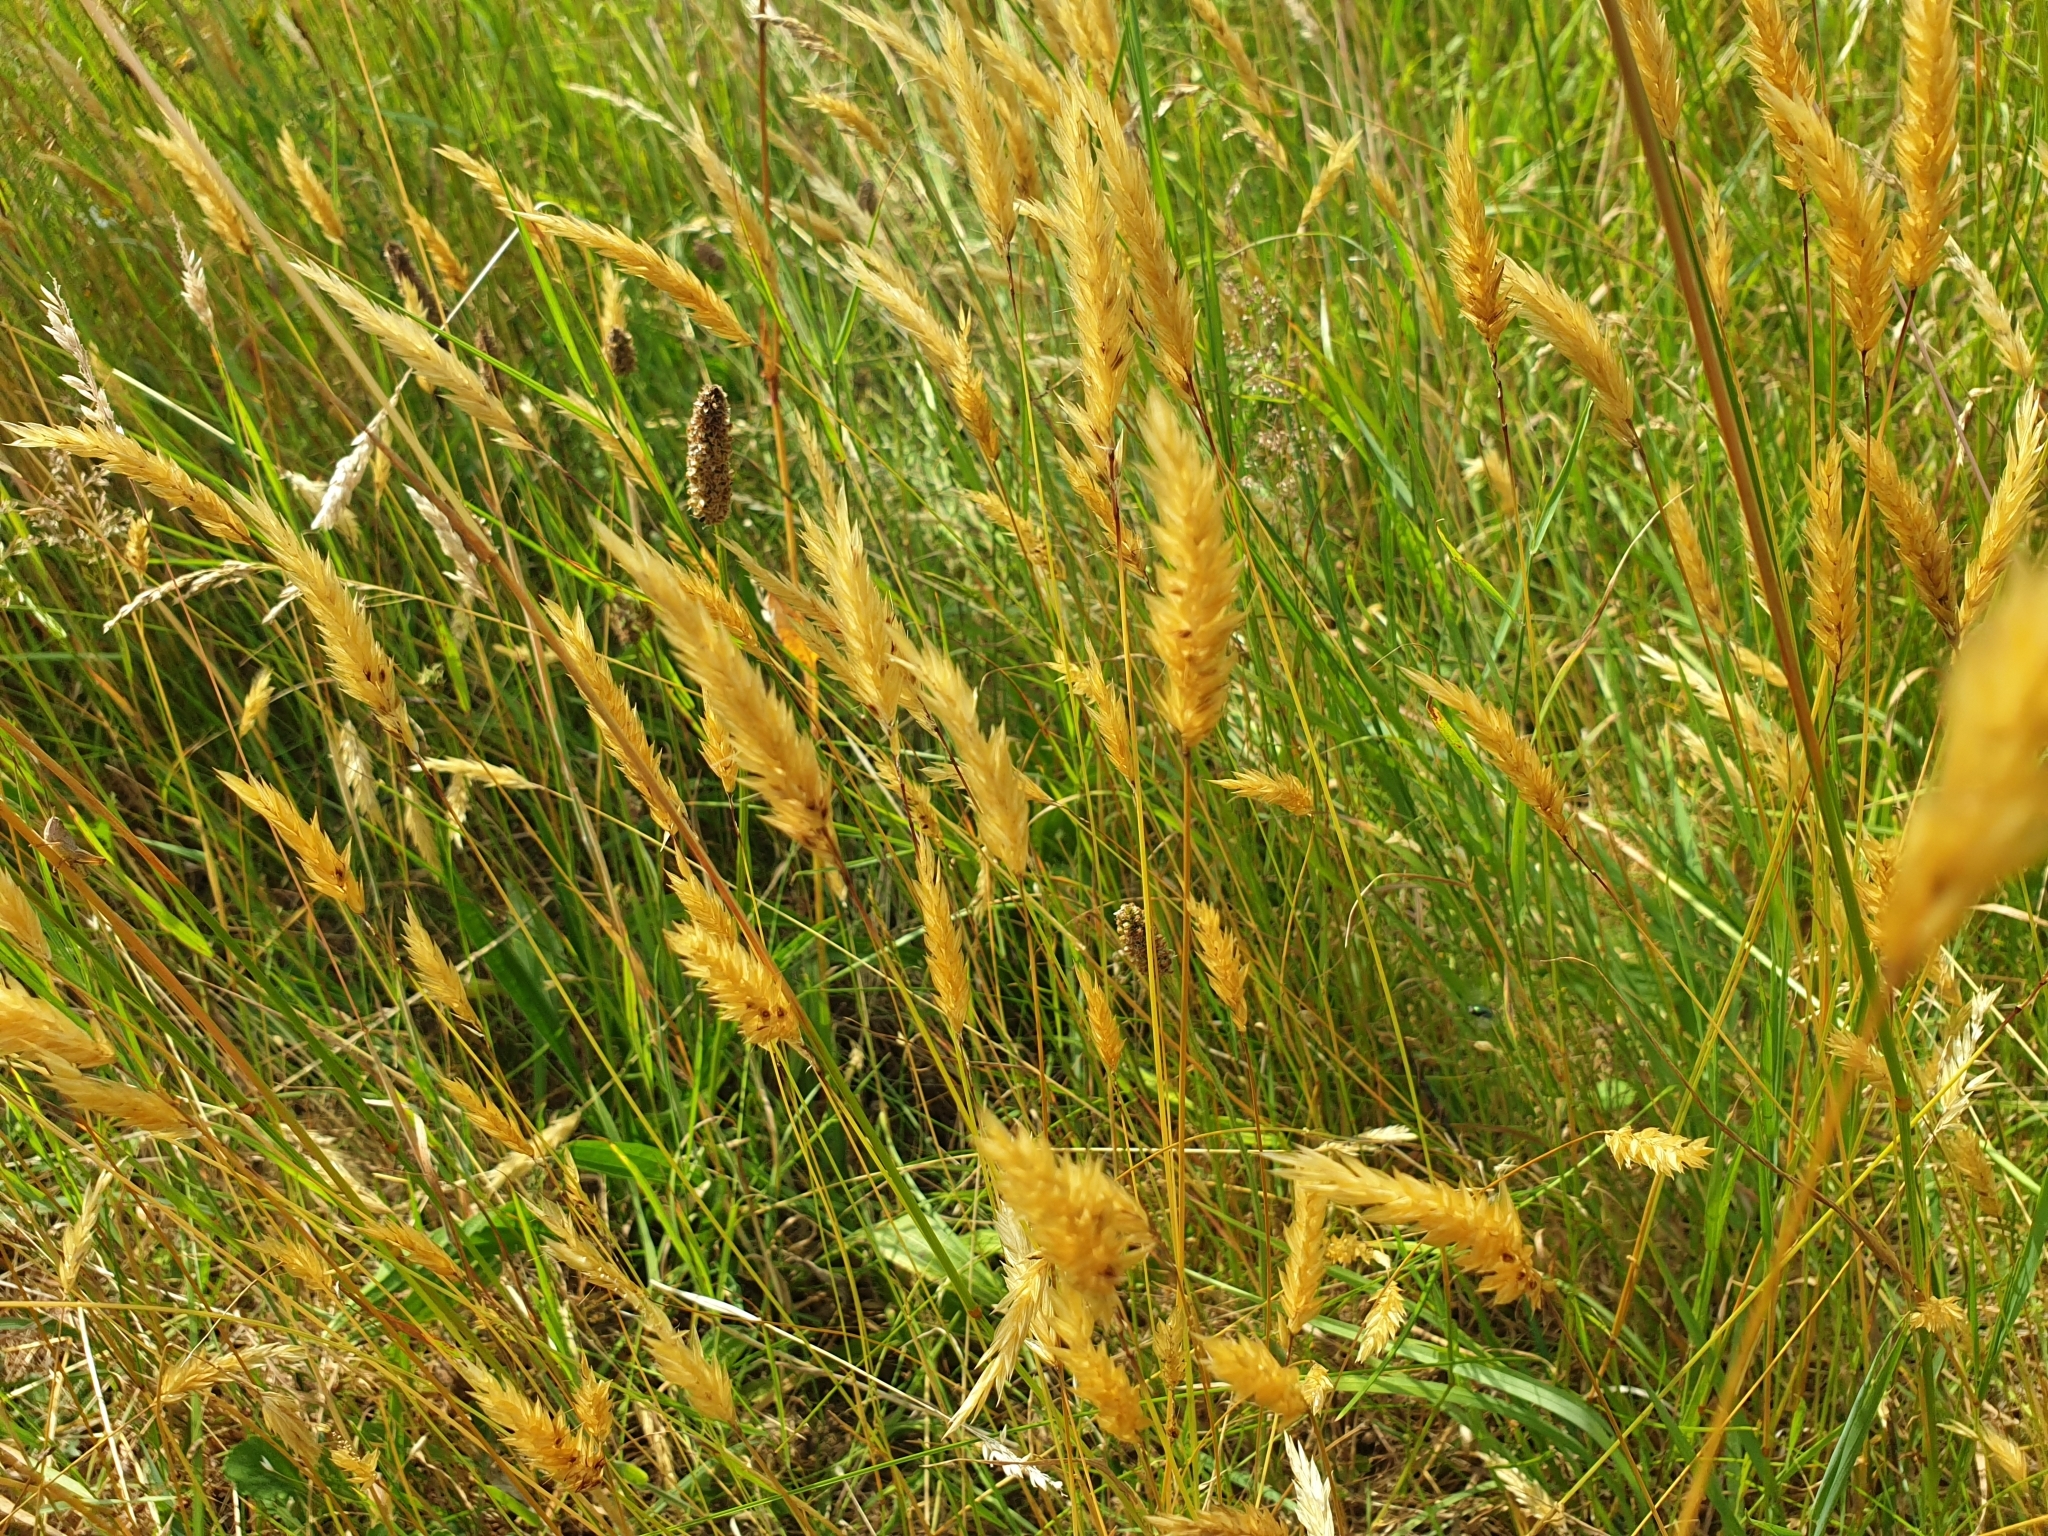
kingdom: Plantae
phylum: Tracheophyta
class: Liliopsida
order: Poales
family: Poaceae
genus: Anthoxanthum
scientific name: Anthoxanthum odoratum
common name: Sweet vernalgrass
